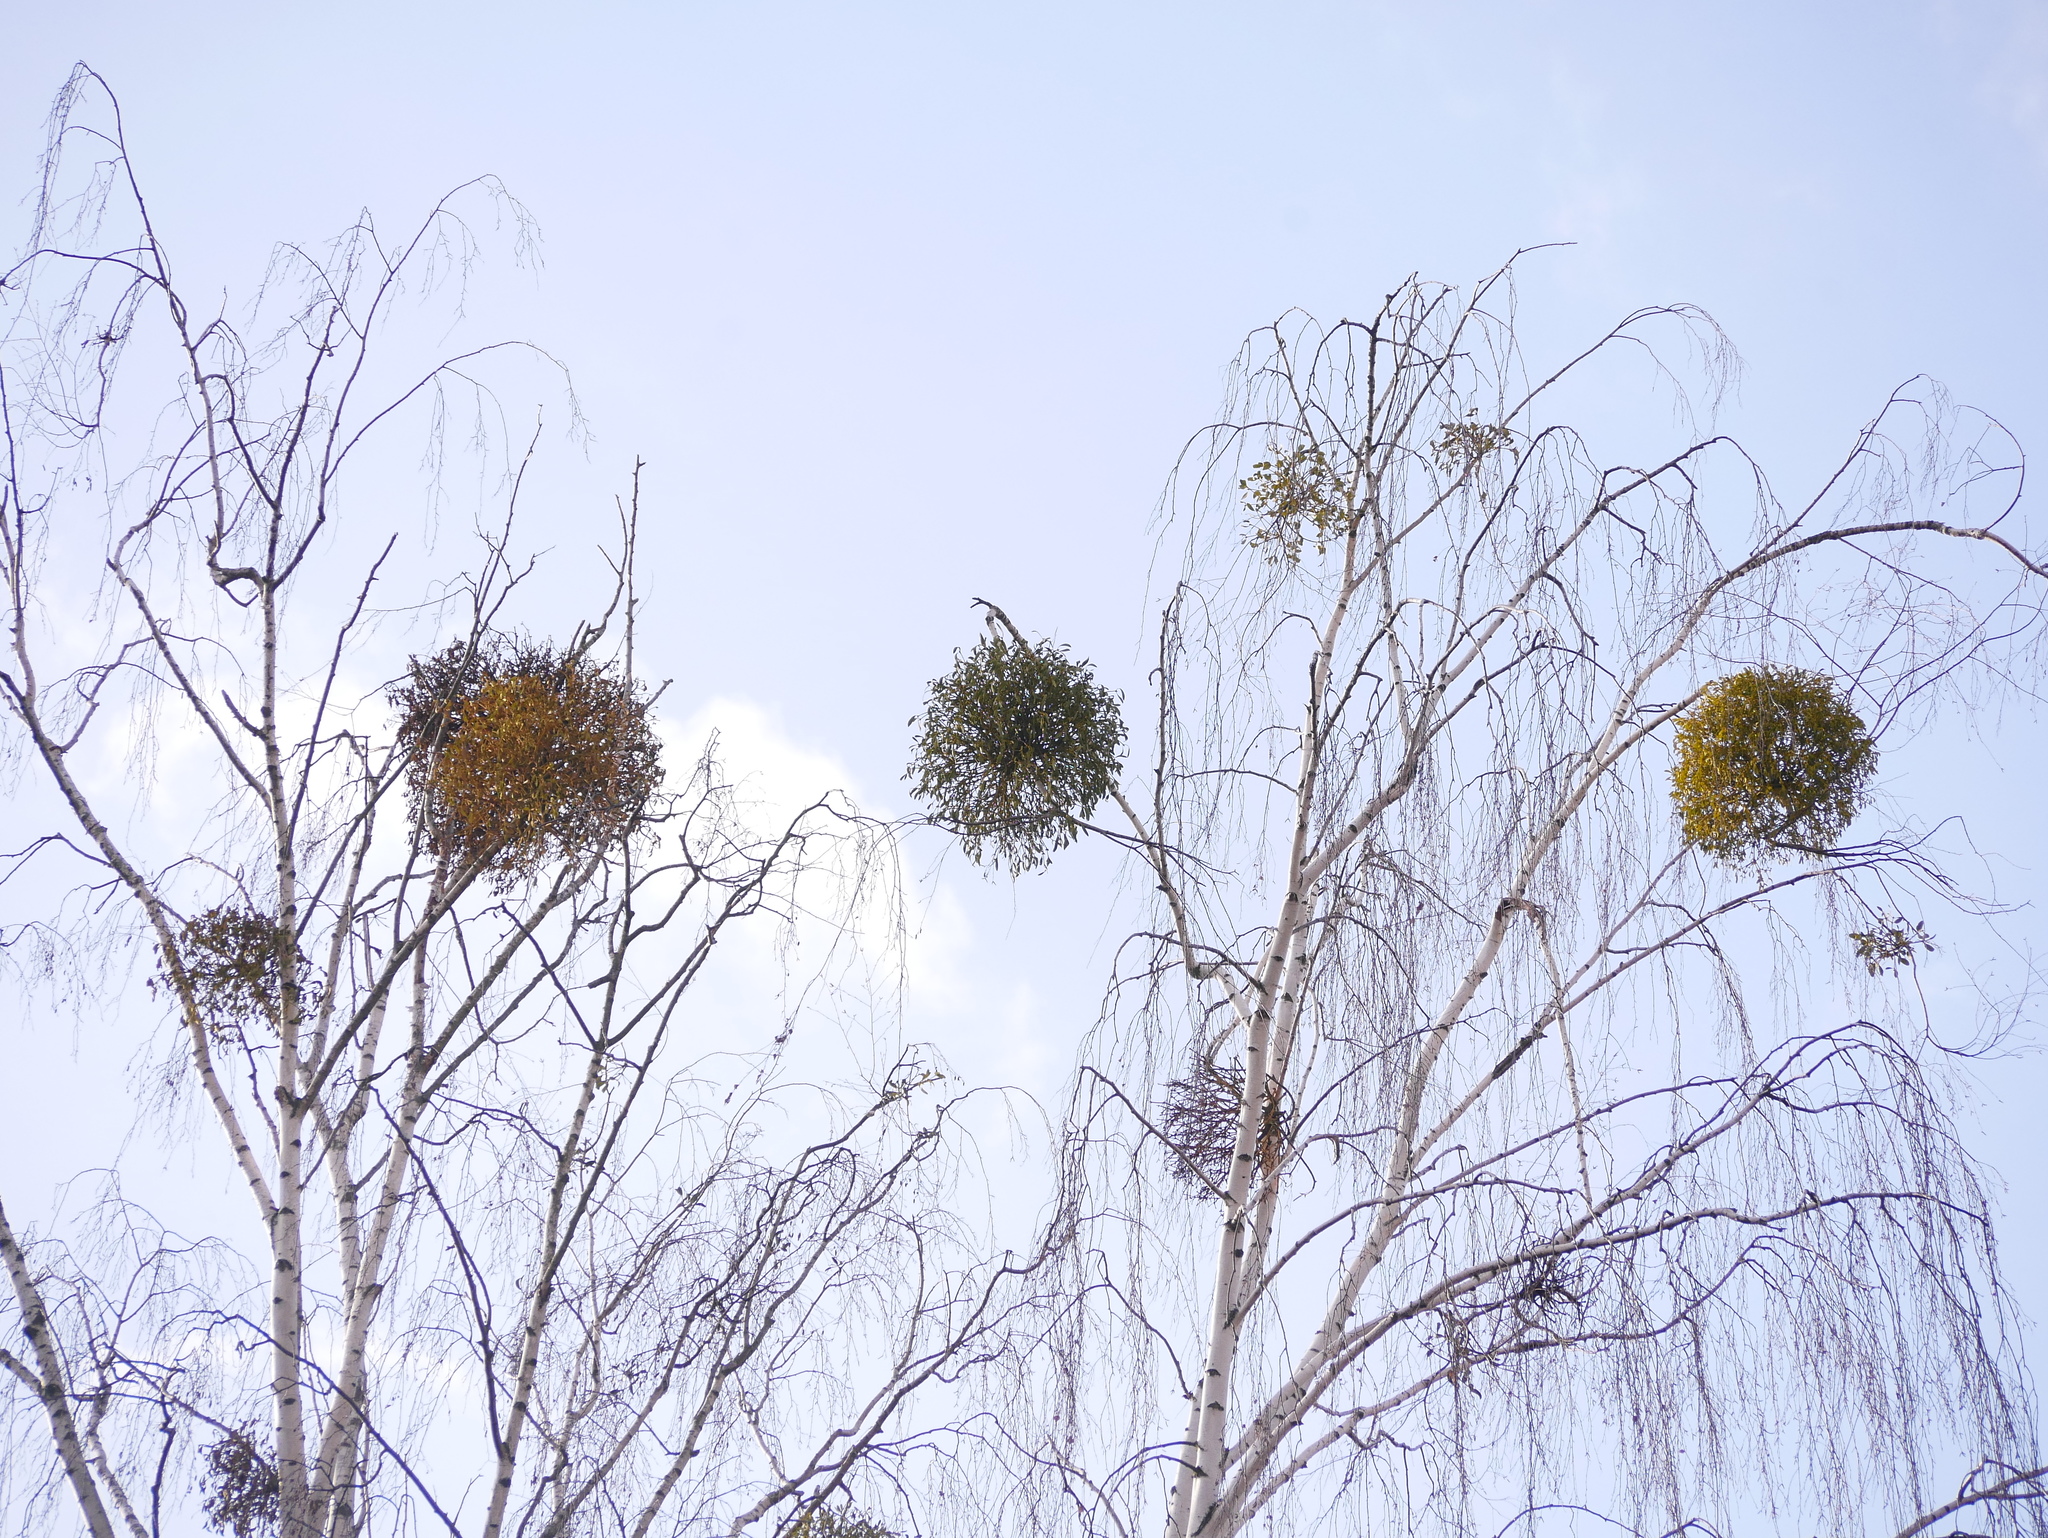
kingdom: Plantae
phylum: Tracheophyta
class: Magnoliopsida
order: Santalales
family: Viscaceae
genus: Viscum
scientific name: Viscum album
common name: Mistletoe
